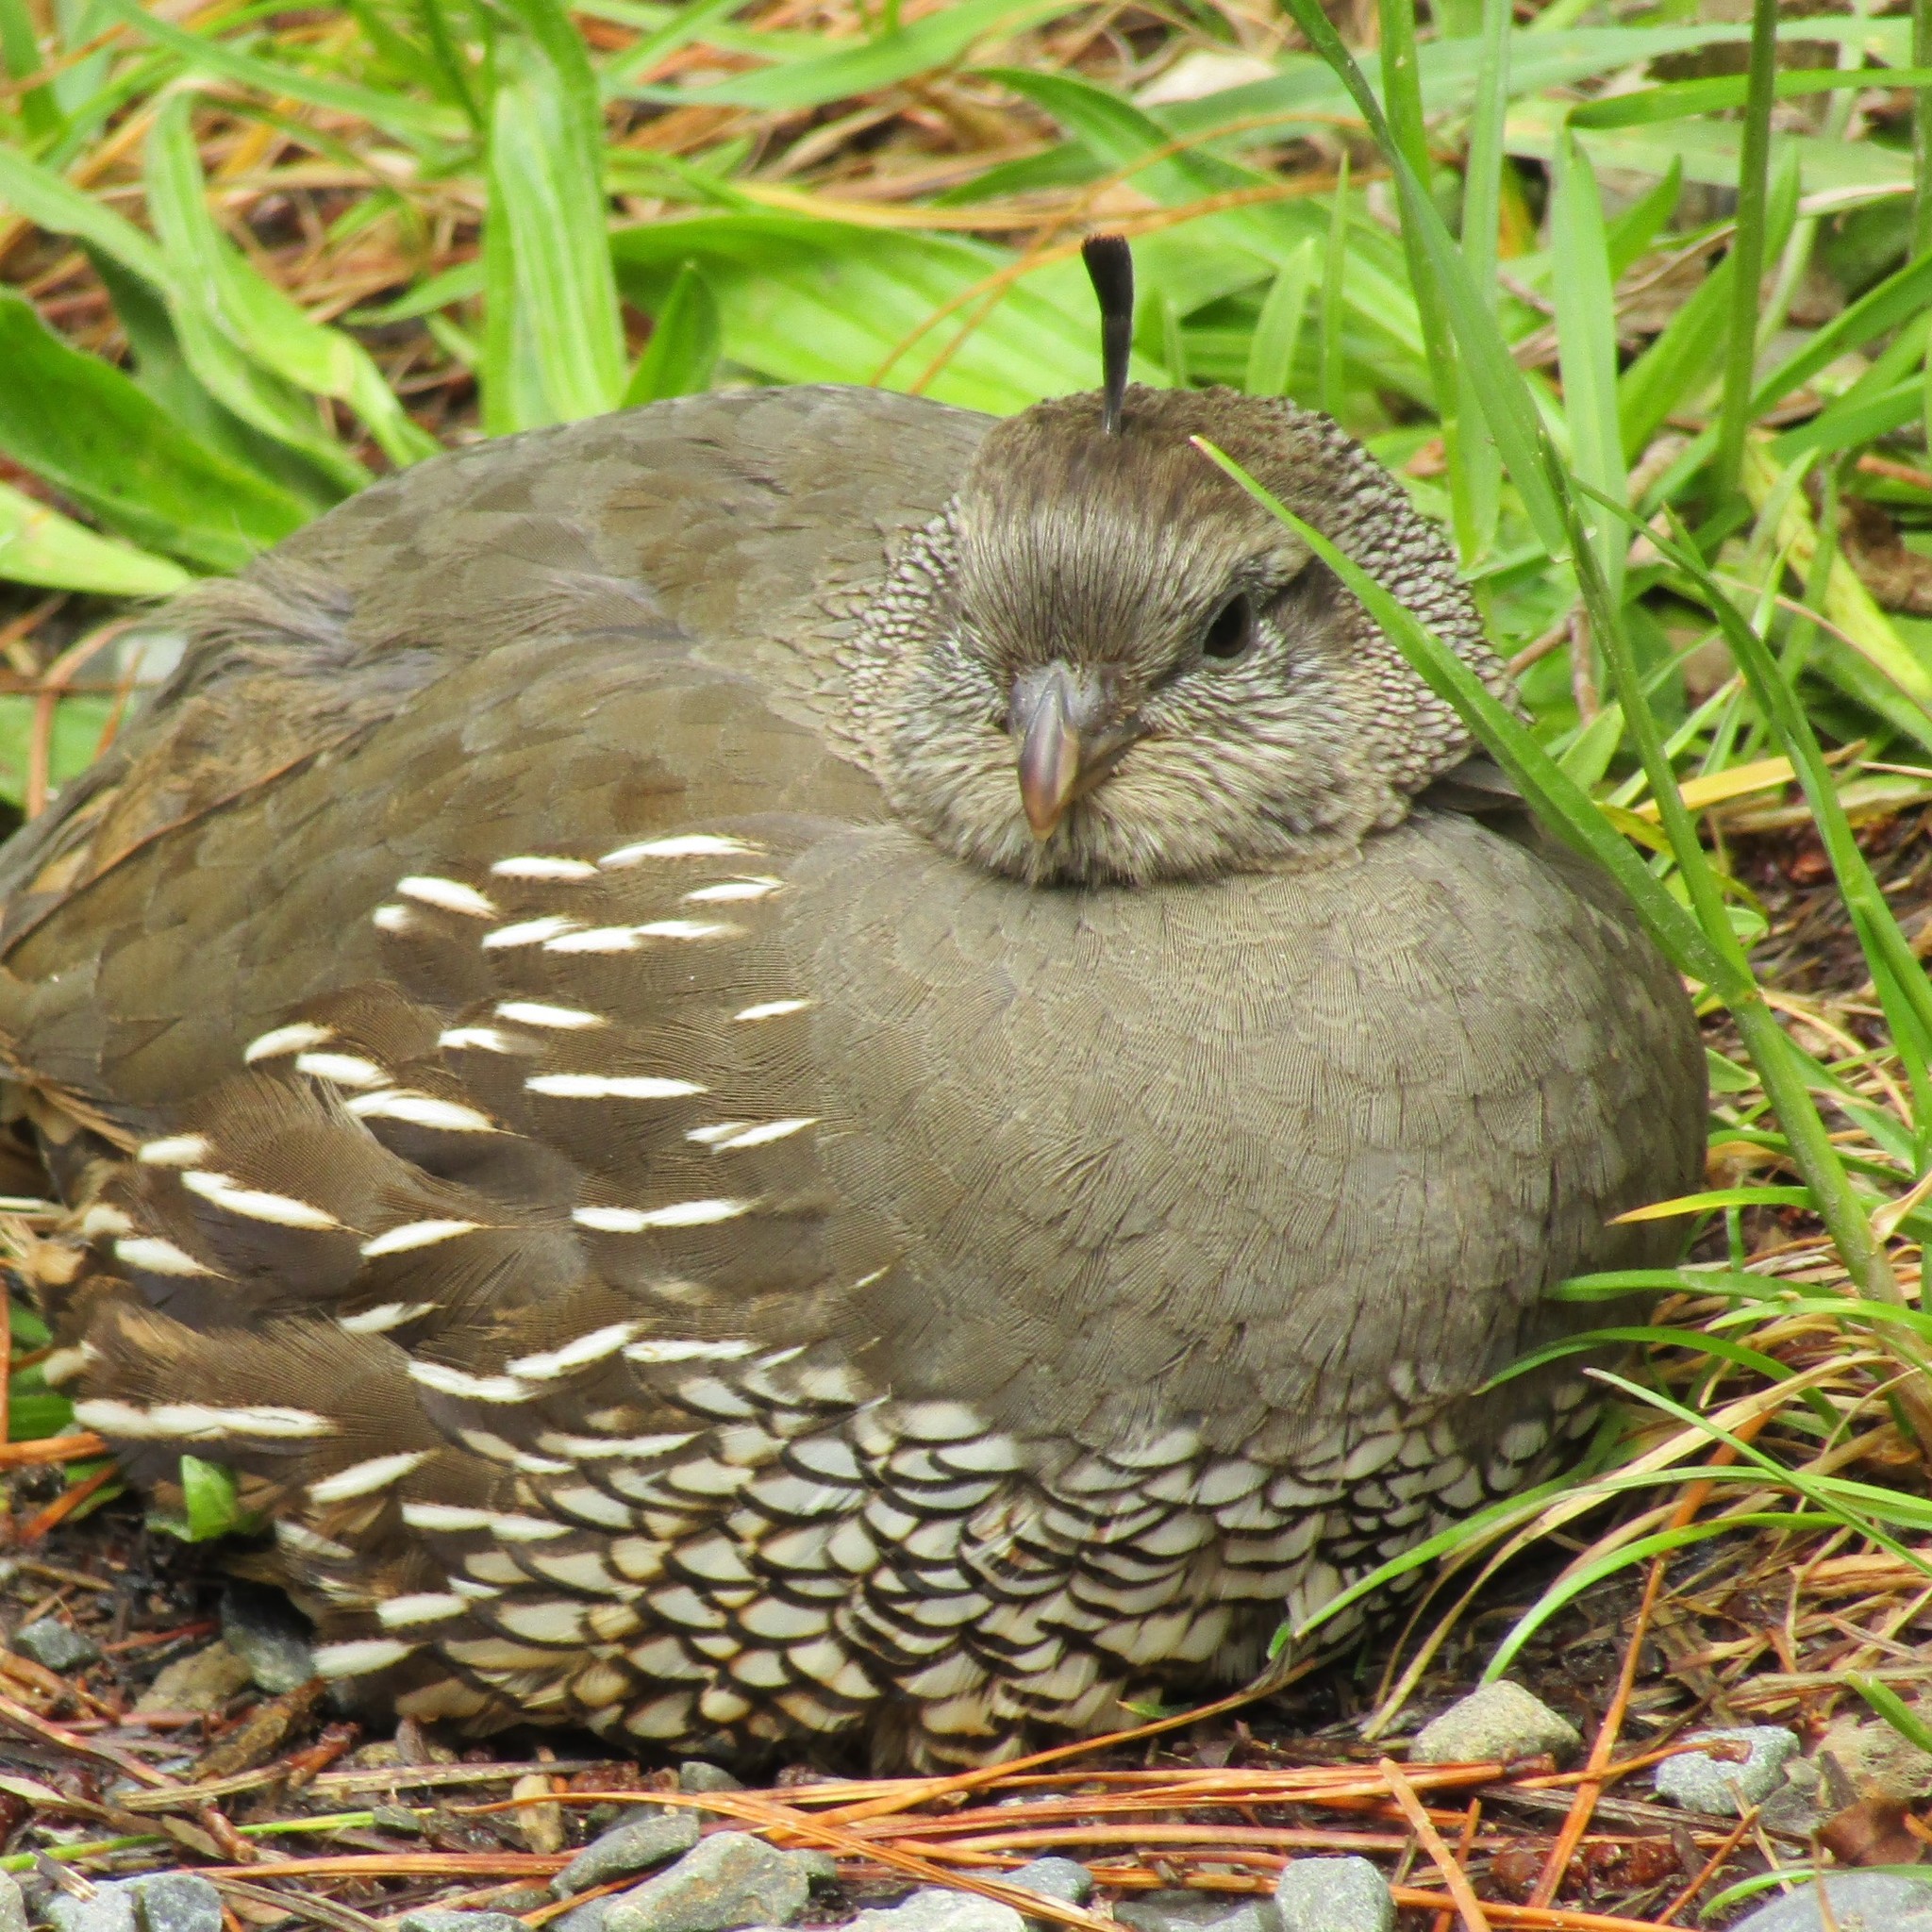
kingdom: Animalia
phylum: Chordata
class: Aves
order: Galliformes
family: Odontophoridae
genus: Callipepla
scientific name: Callipepla californica
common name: California quail
